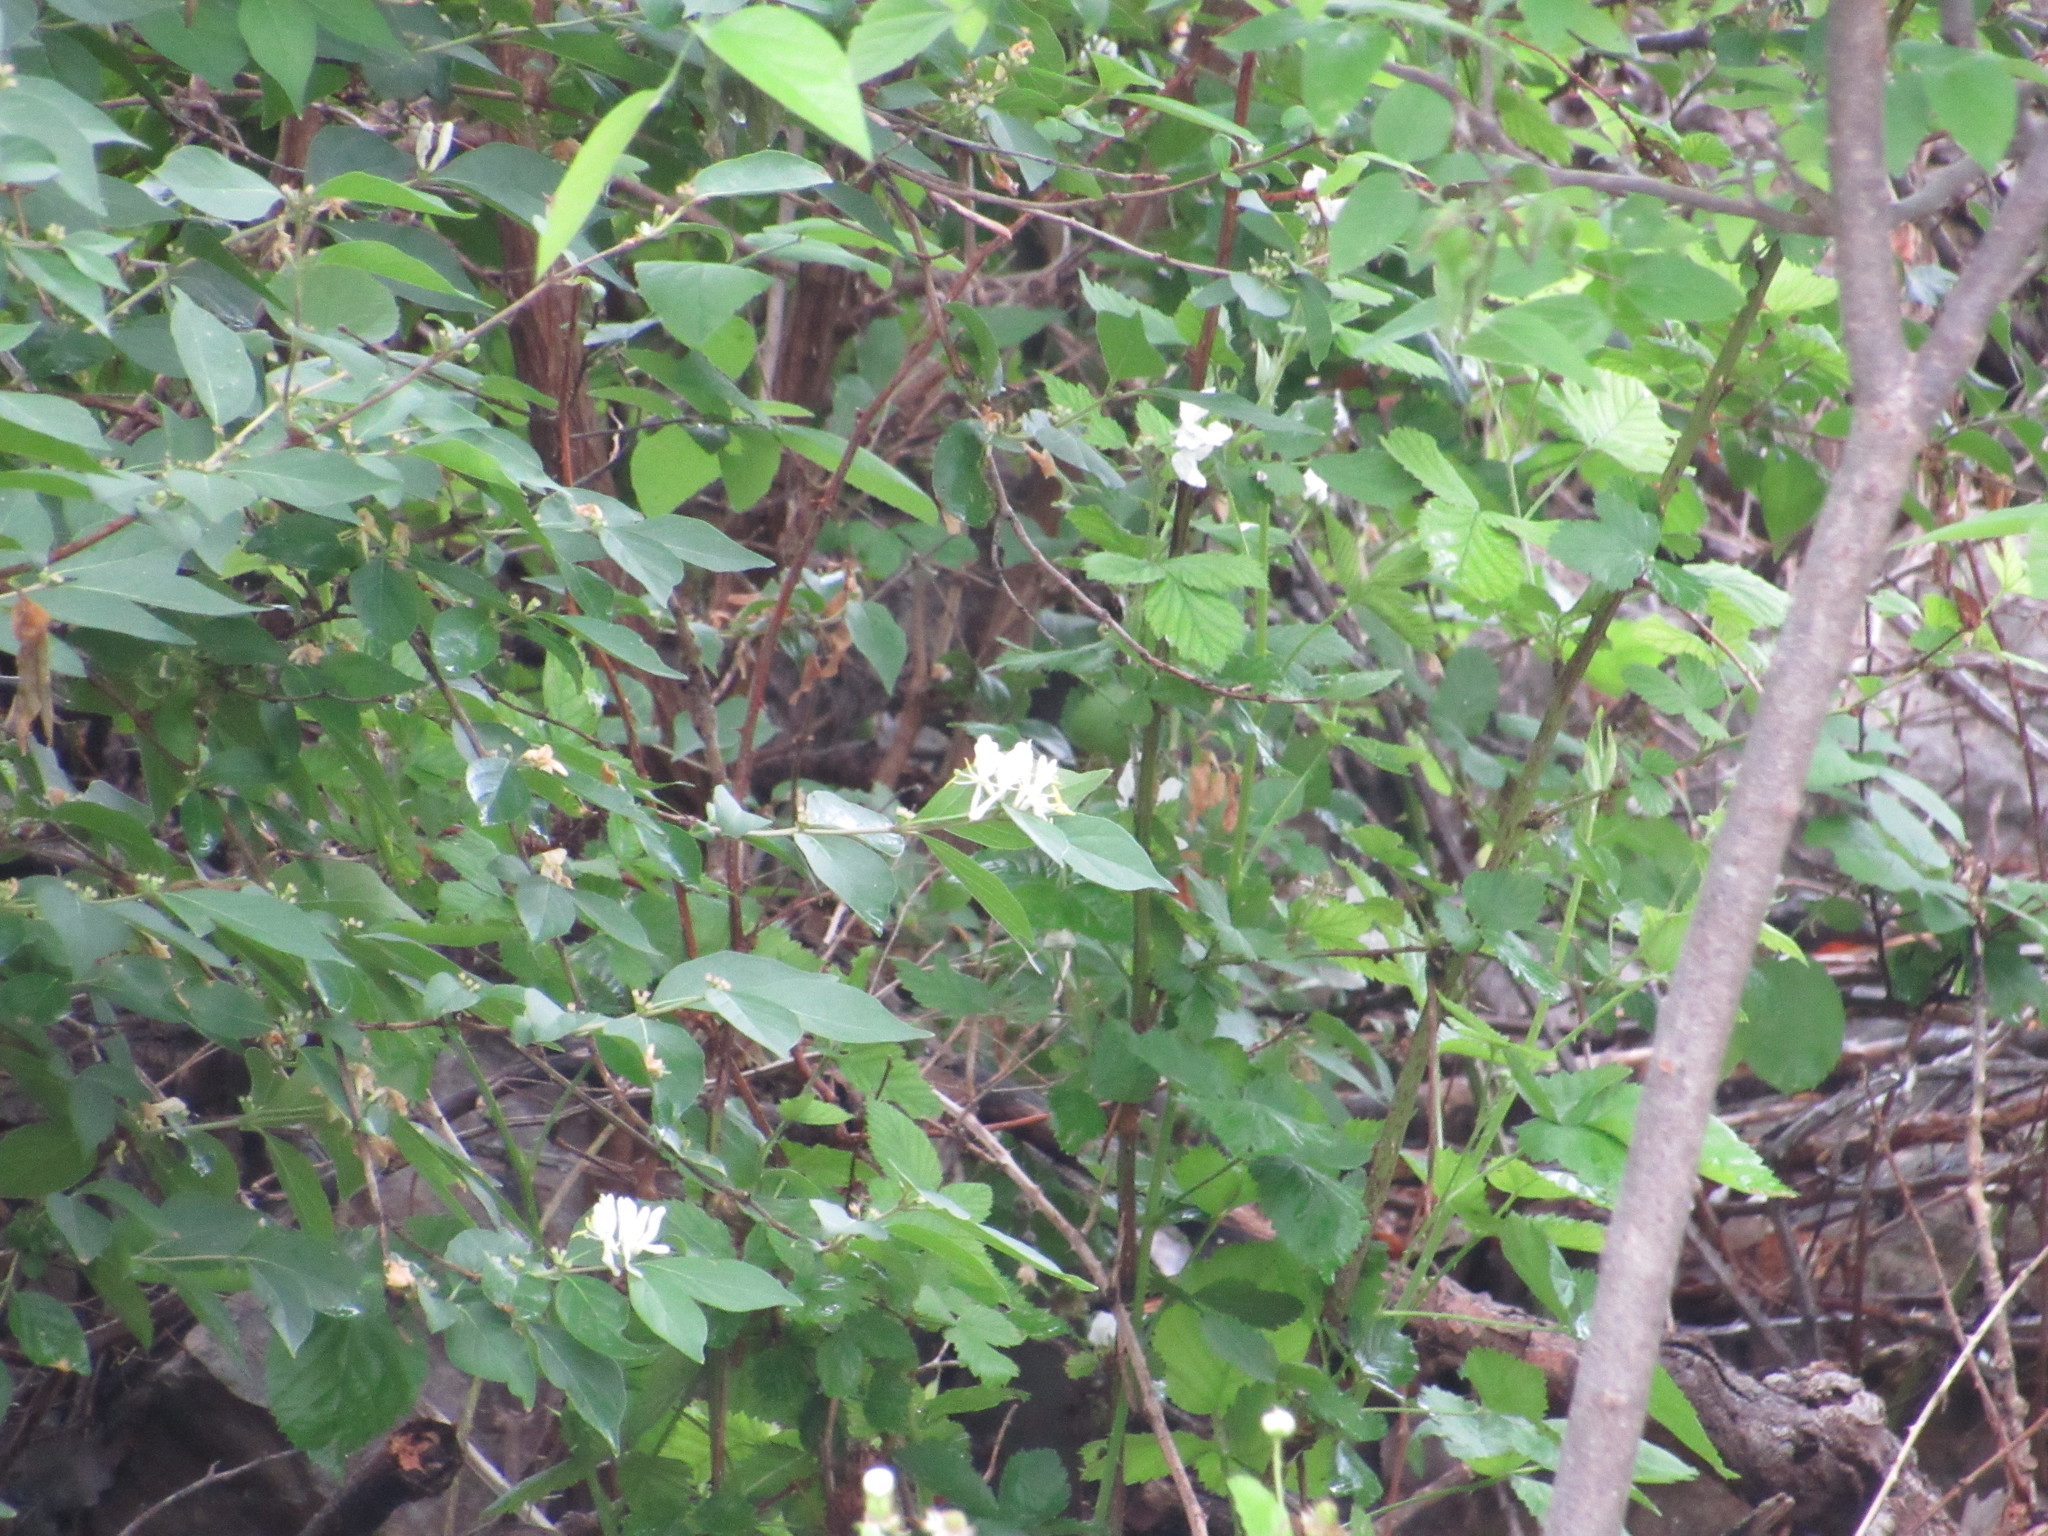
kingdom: Plantae
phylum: Tracheophyta
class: Magnoliopsida
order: Dipsacales
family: Caprifoliaceae
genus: Lonicera
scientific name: Lonicera maackii
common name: Amur honeysuckle
